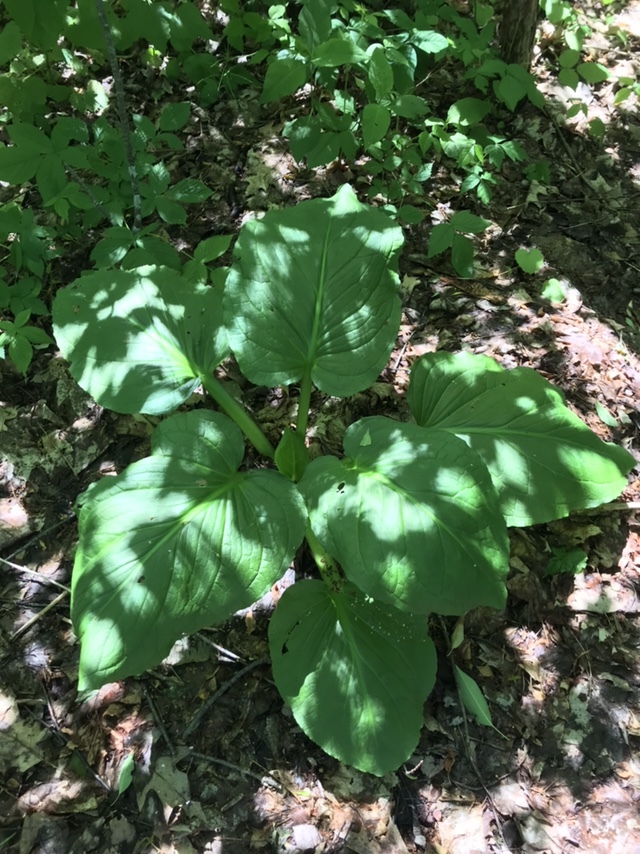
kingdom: Plantae
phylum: Tracheophyta
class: Liliopsida
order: Alismatales
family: Araceae
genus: Symplocarpus
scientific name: Symplocarpus foetidus
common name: Eastern skunk cabbage
